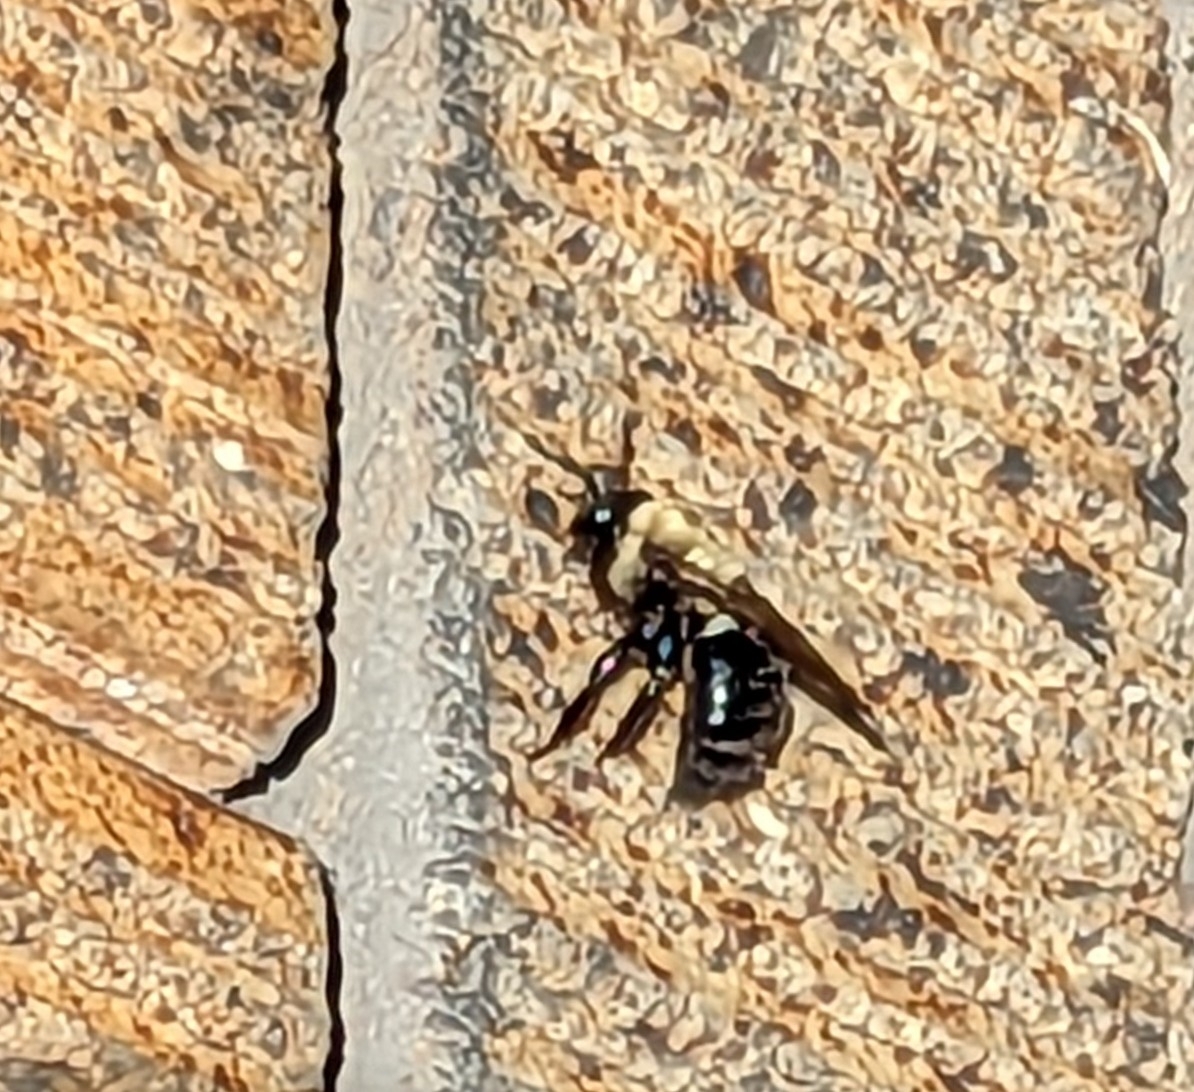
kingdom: Animalia
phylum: Arthropoda
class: Insecta
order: Hymenoptera
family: Apidae
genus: Xylocopa
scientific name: Xylocopa virginica
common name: Carpenter bee
